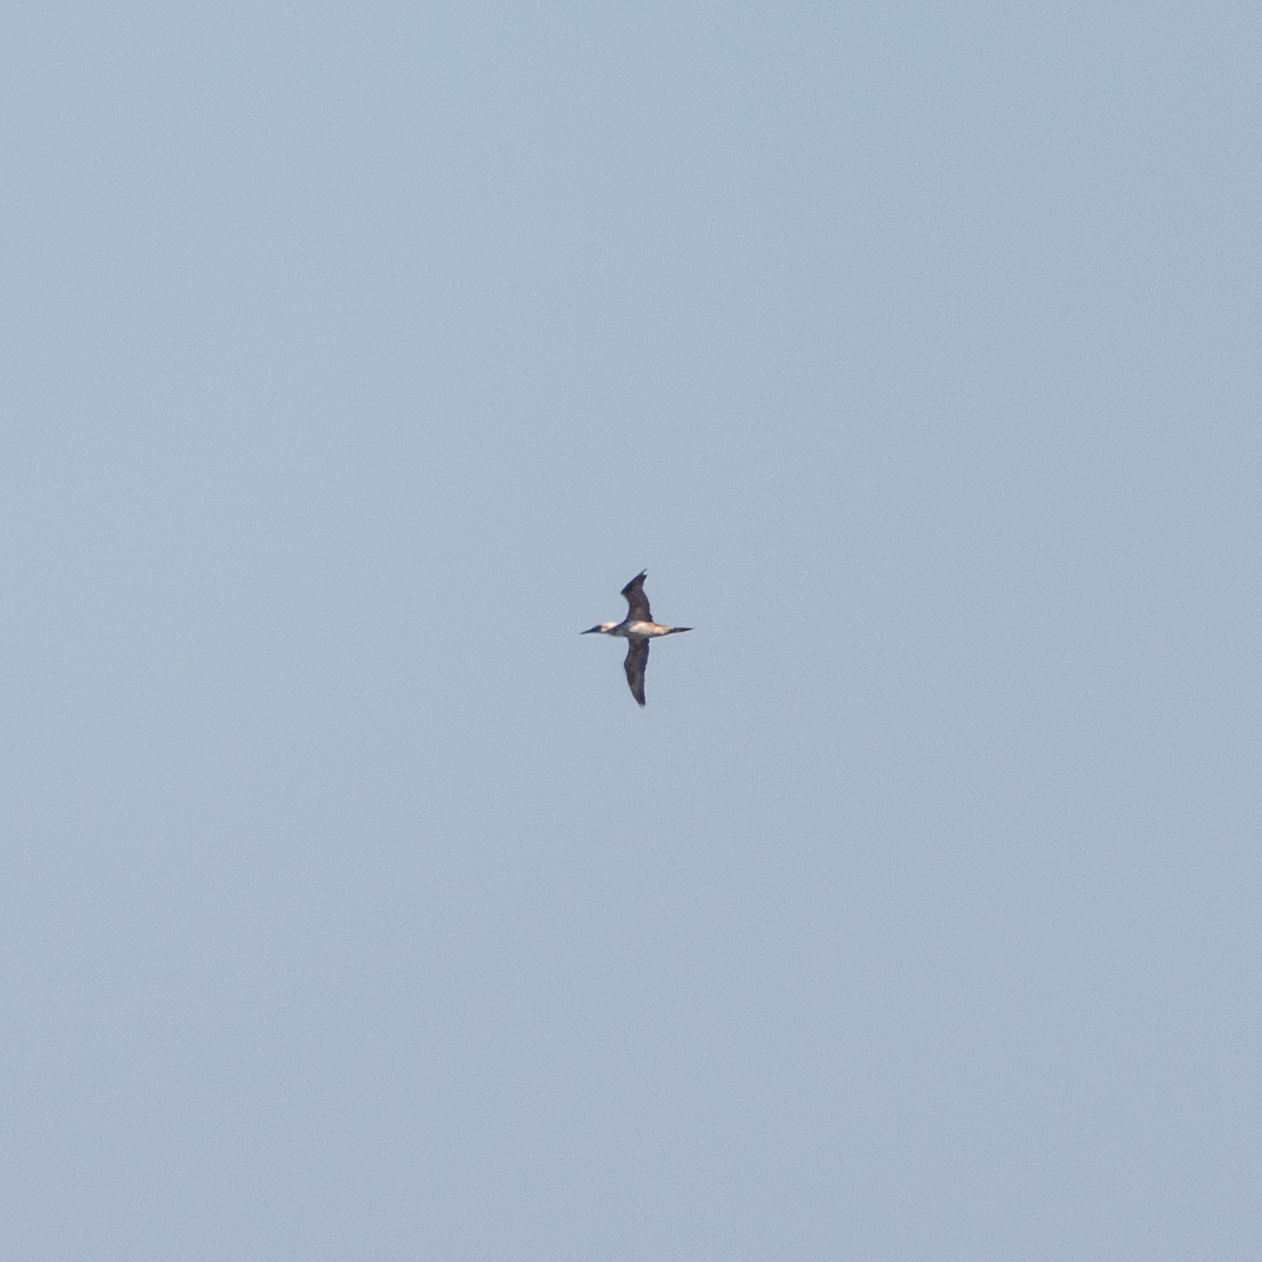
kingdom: Animalia
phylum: Chordata
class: Aves
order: Suliformes
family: Sulidae
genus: Morus
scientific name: Morus bassanus
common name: Northern gannet
